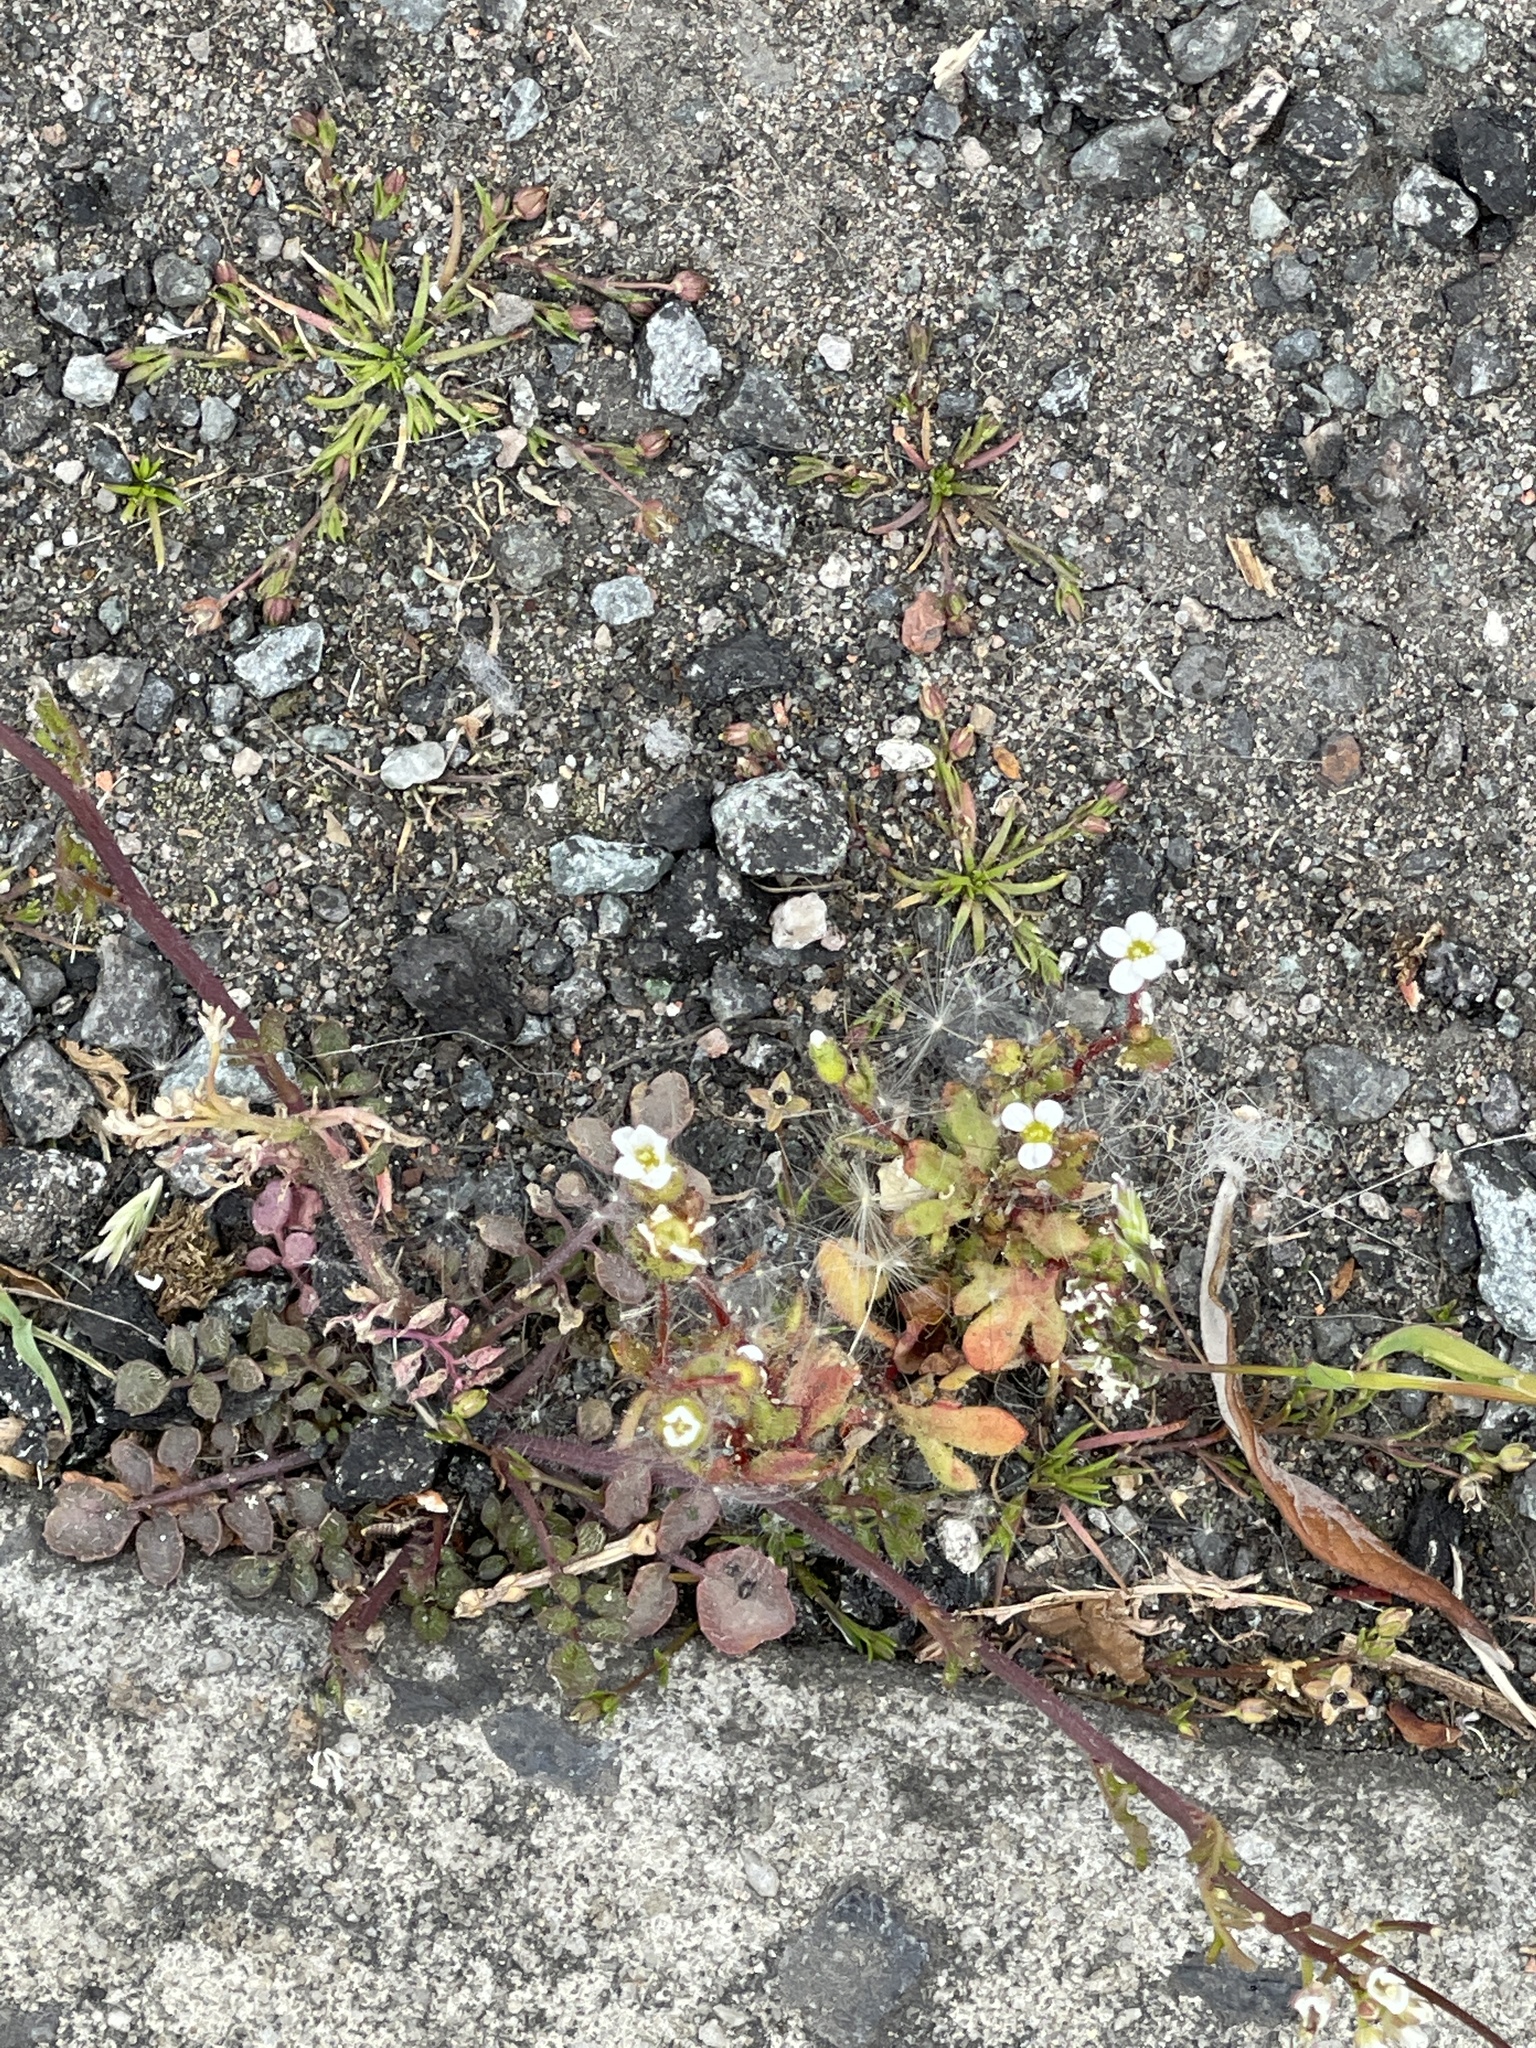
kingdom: Plantae
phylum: Tracheophyta
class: Magnoliopsida
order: Saxifragales
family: Saxifragaceae
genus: Saxifraga
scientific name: Saxifraga tridactylites
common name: Rue-leaved saxifrage
